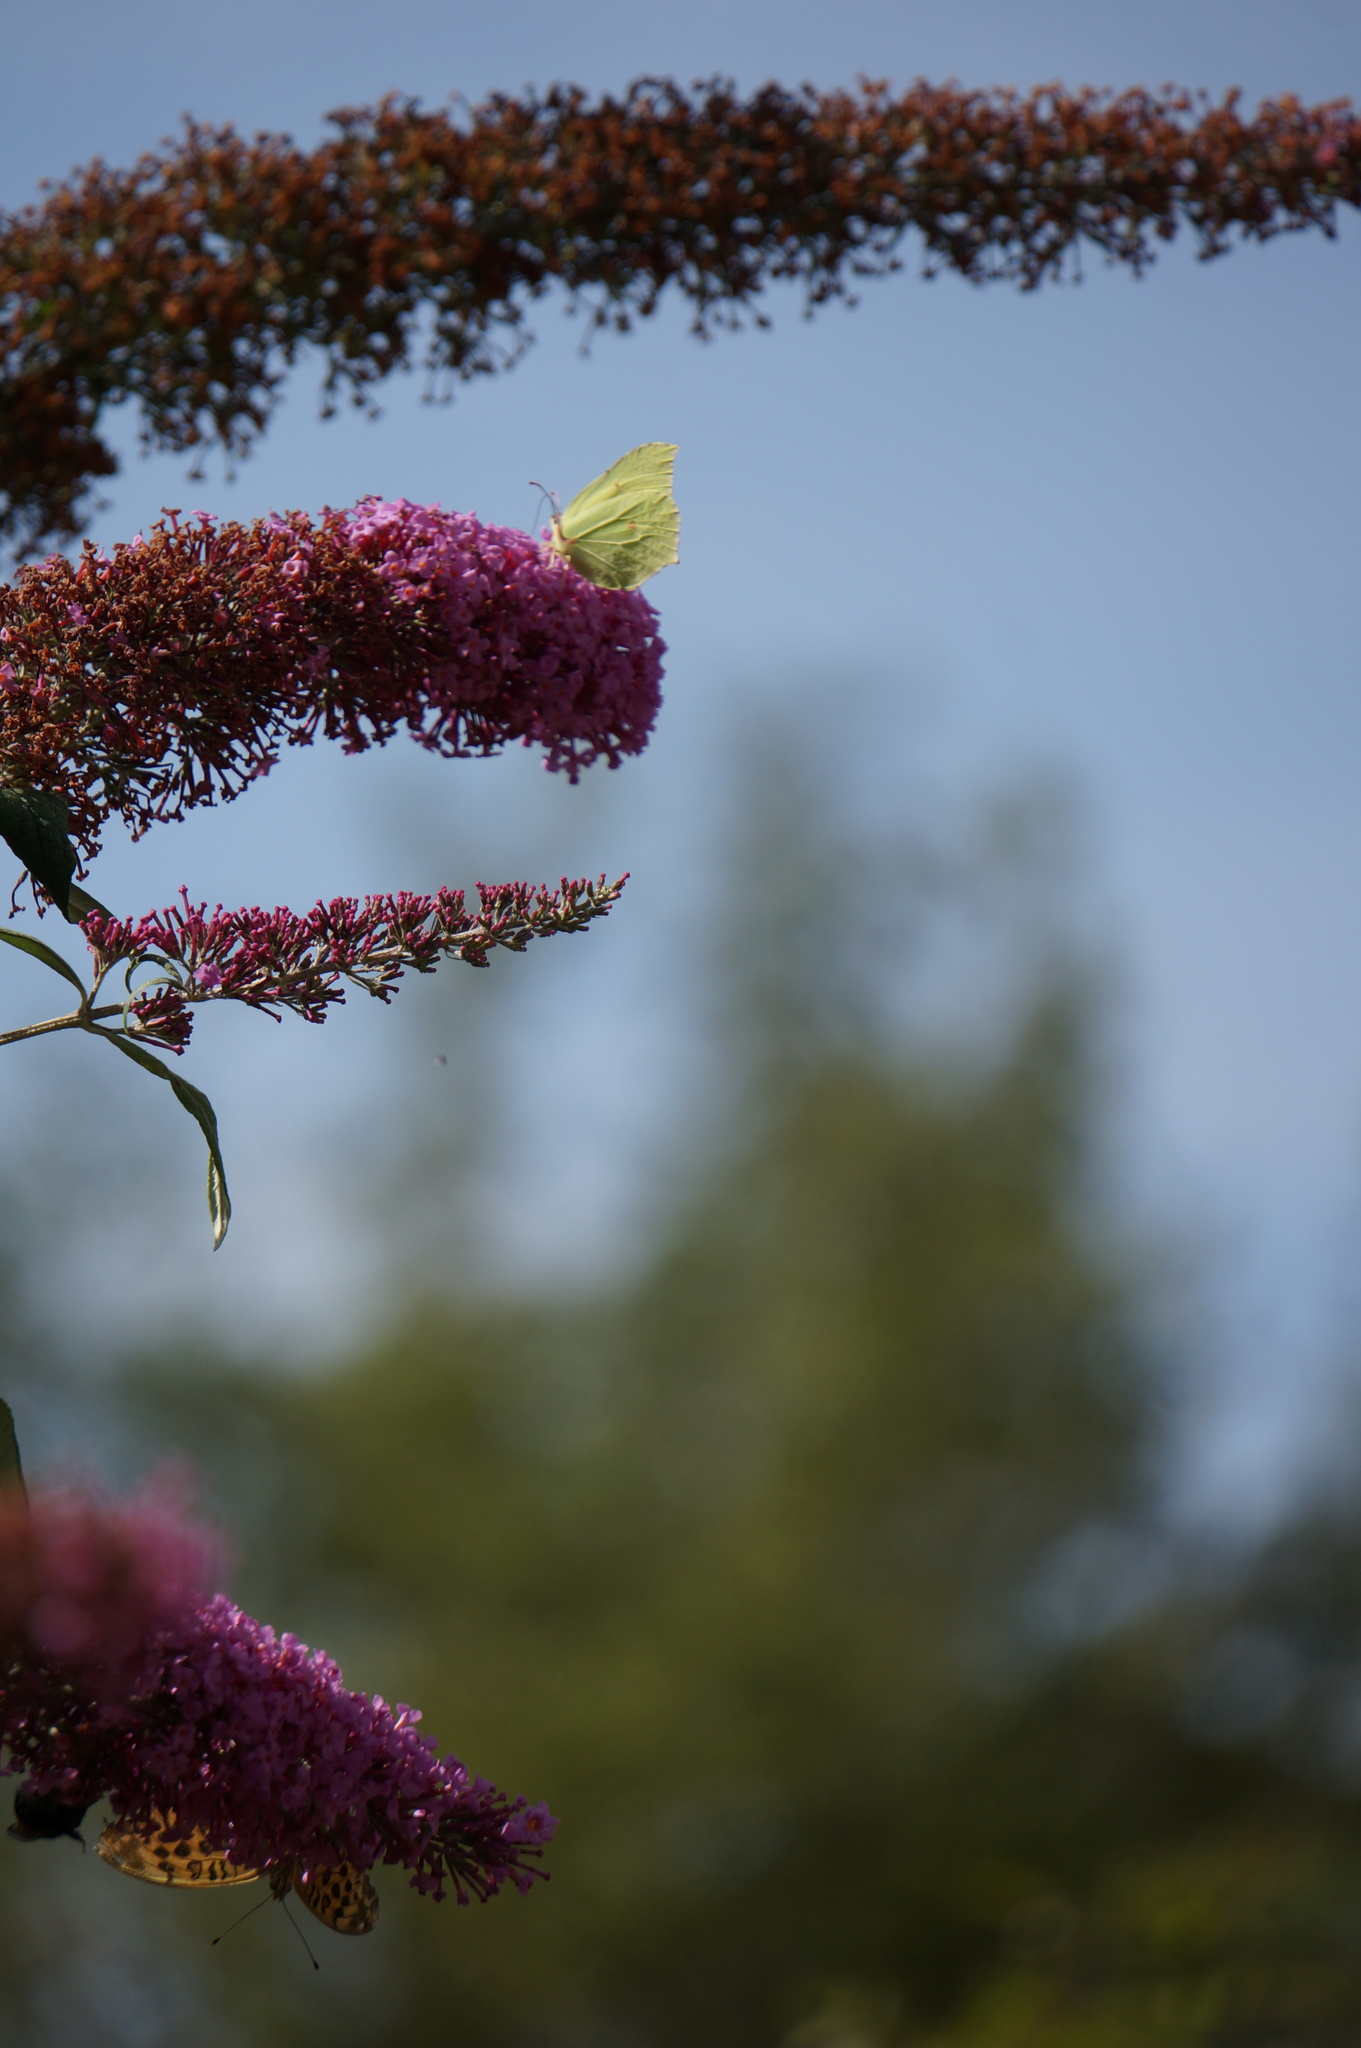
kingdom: Animalia
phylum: Arthropoda
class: Insecta
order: Lepidoptera
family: Pieridae
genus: Gonepteryx
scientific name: Gonepteryx rhamni
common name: Brimstone
